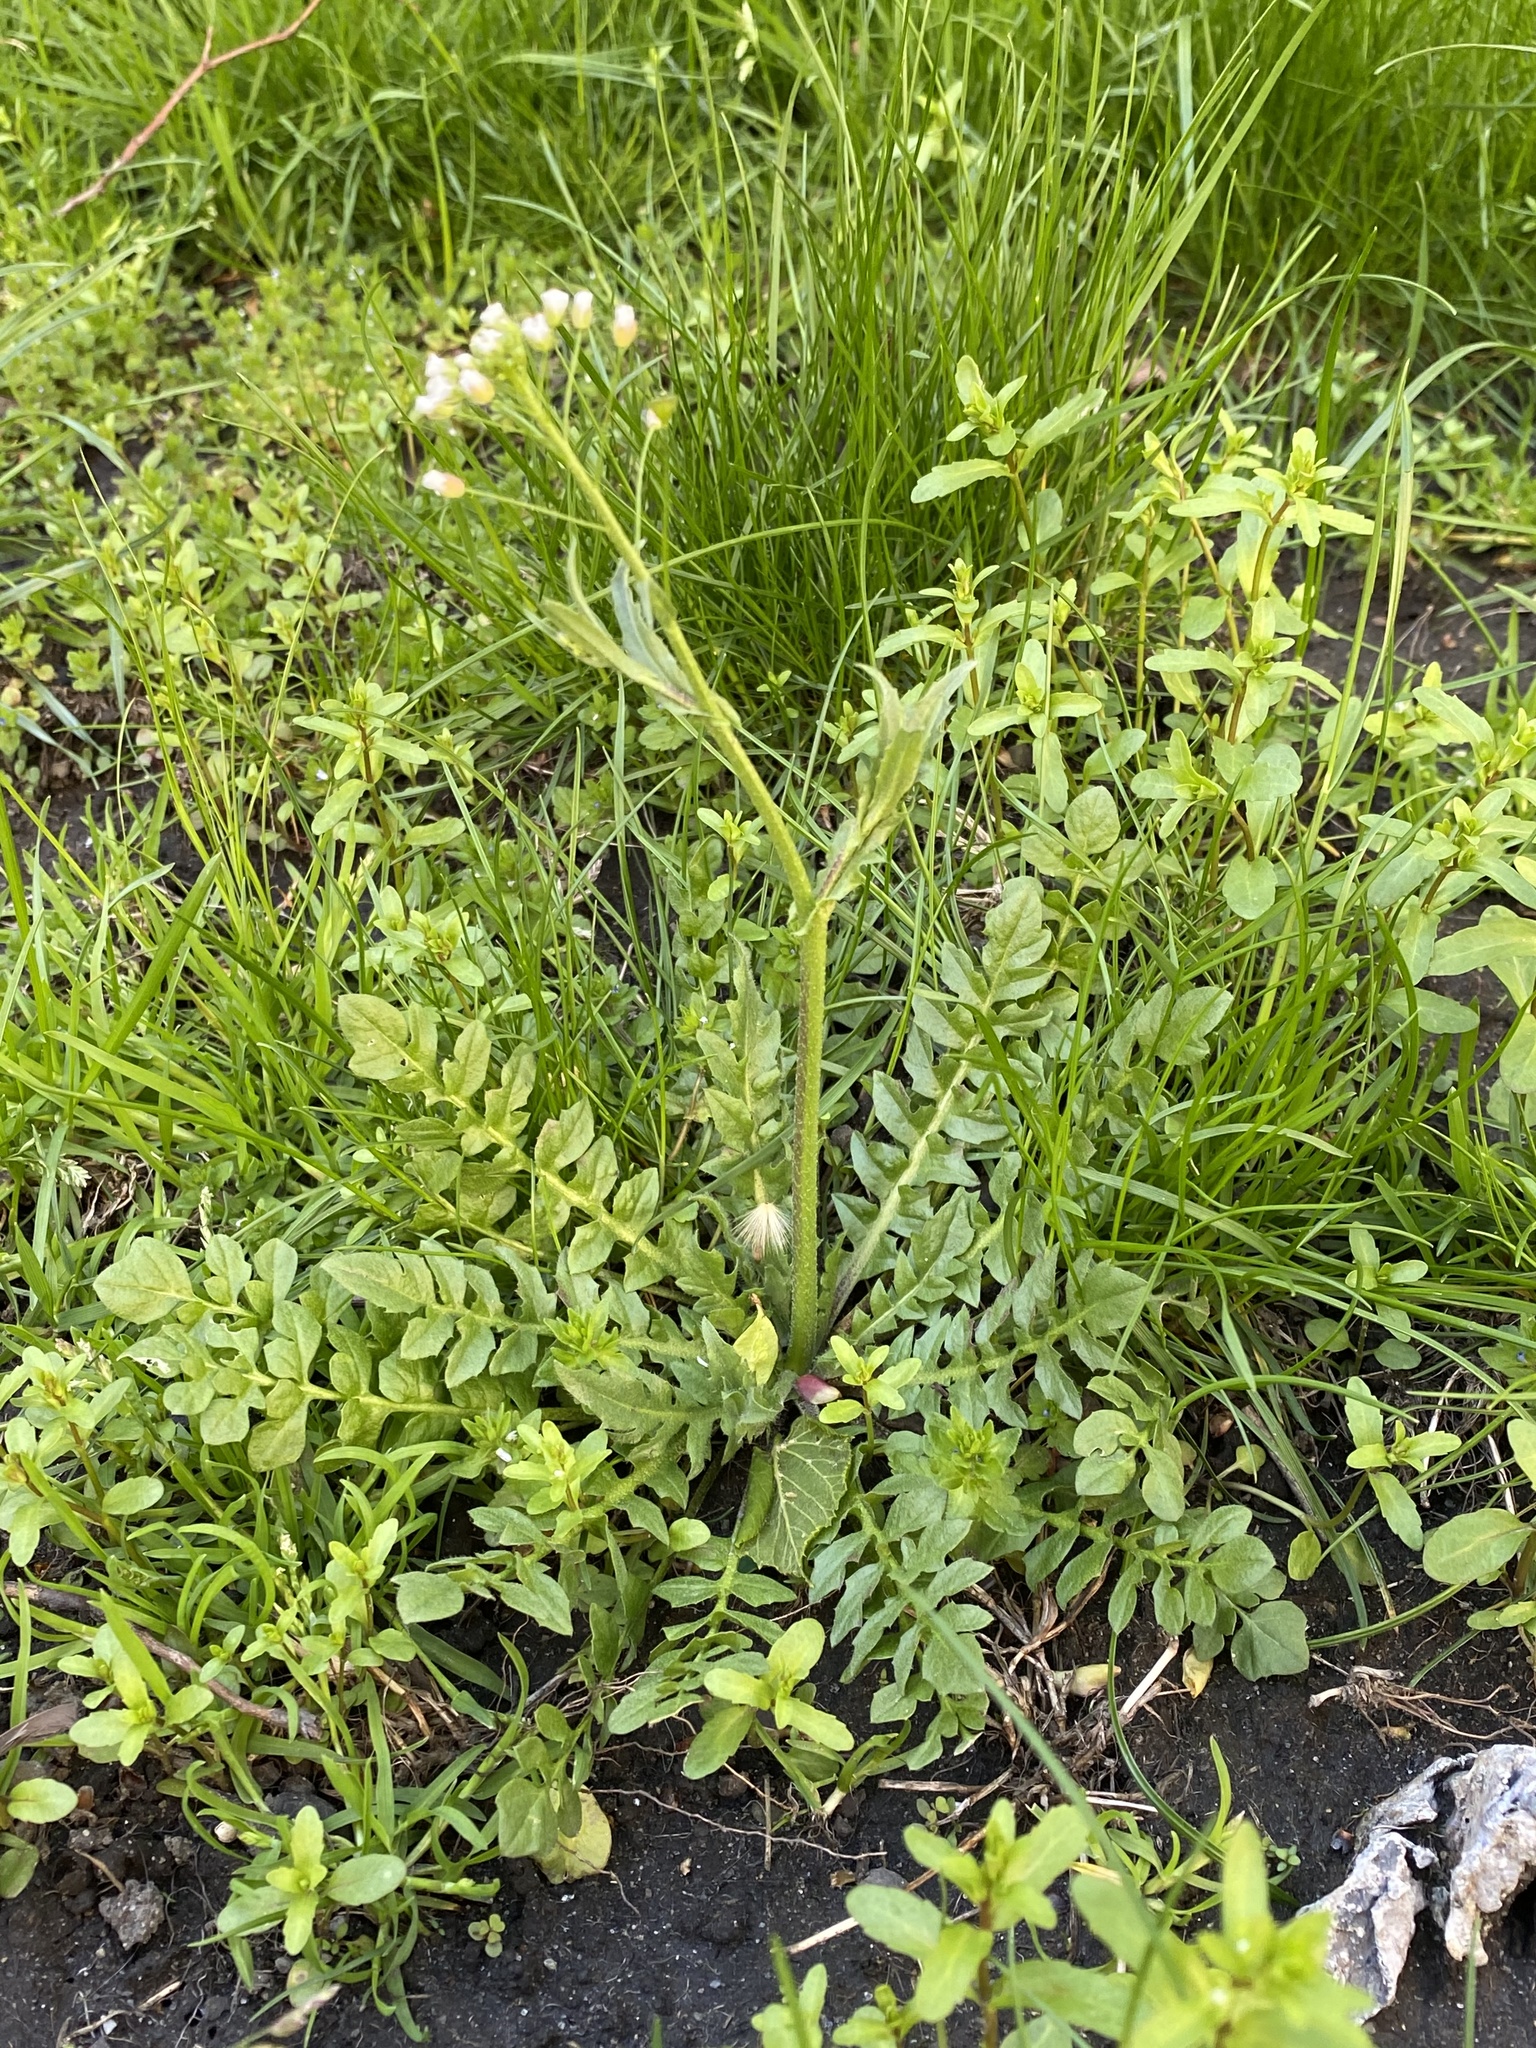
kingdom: Plantae
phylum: Tracheophyta
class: Magnoliopsida
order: Brassicales
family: Brassicaceae
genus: Capsella
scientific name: Capsella bursa-pastoris
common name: Shepherd's purse
